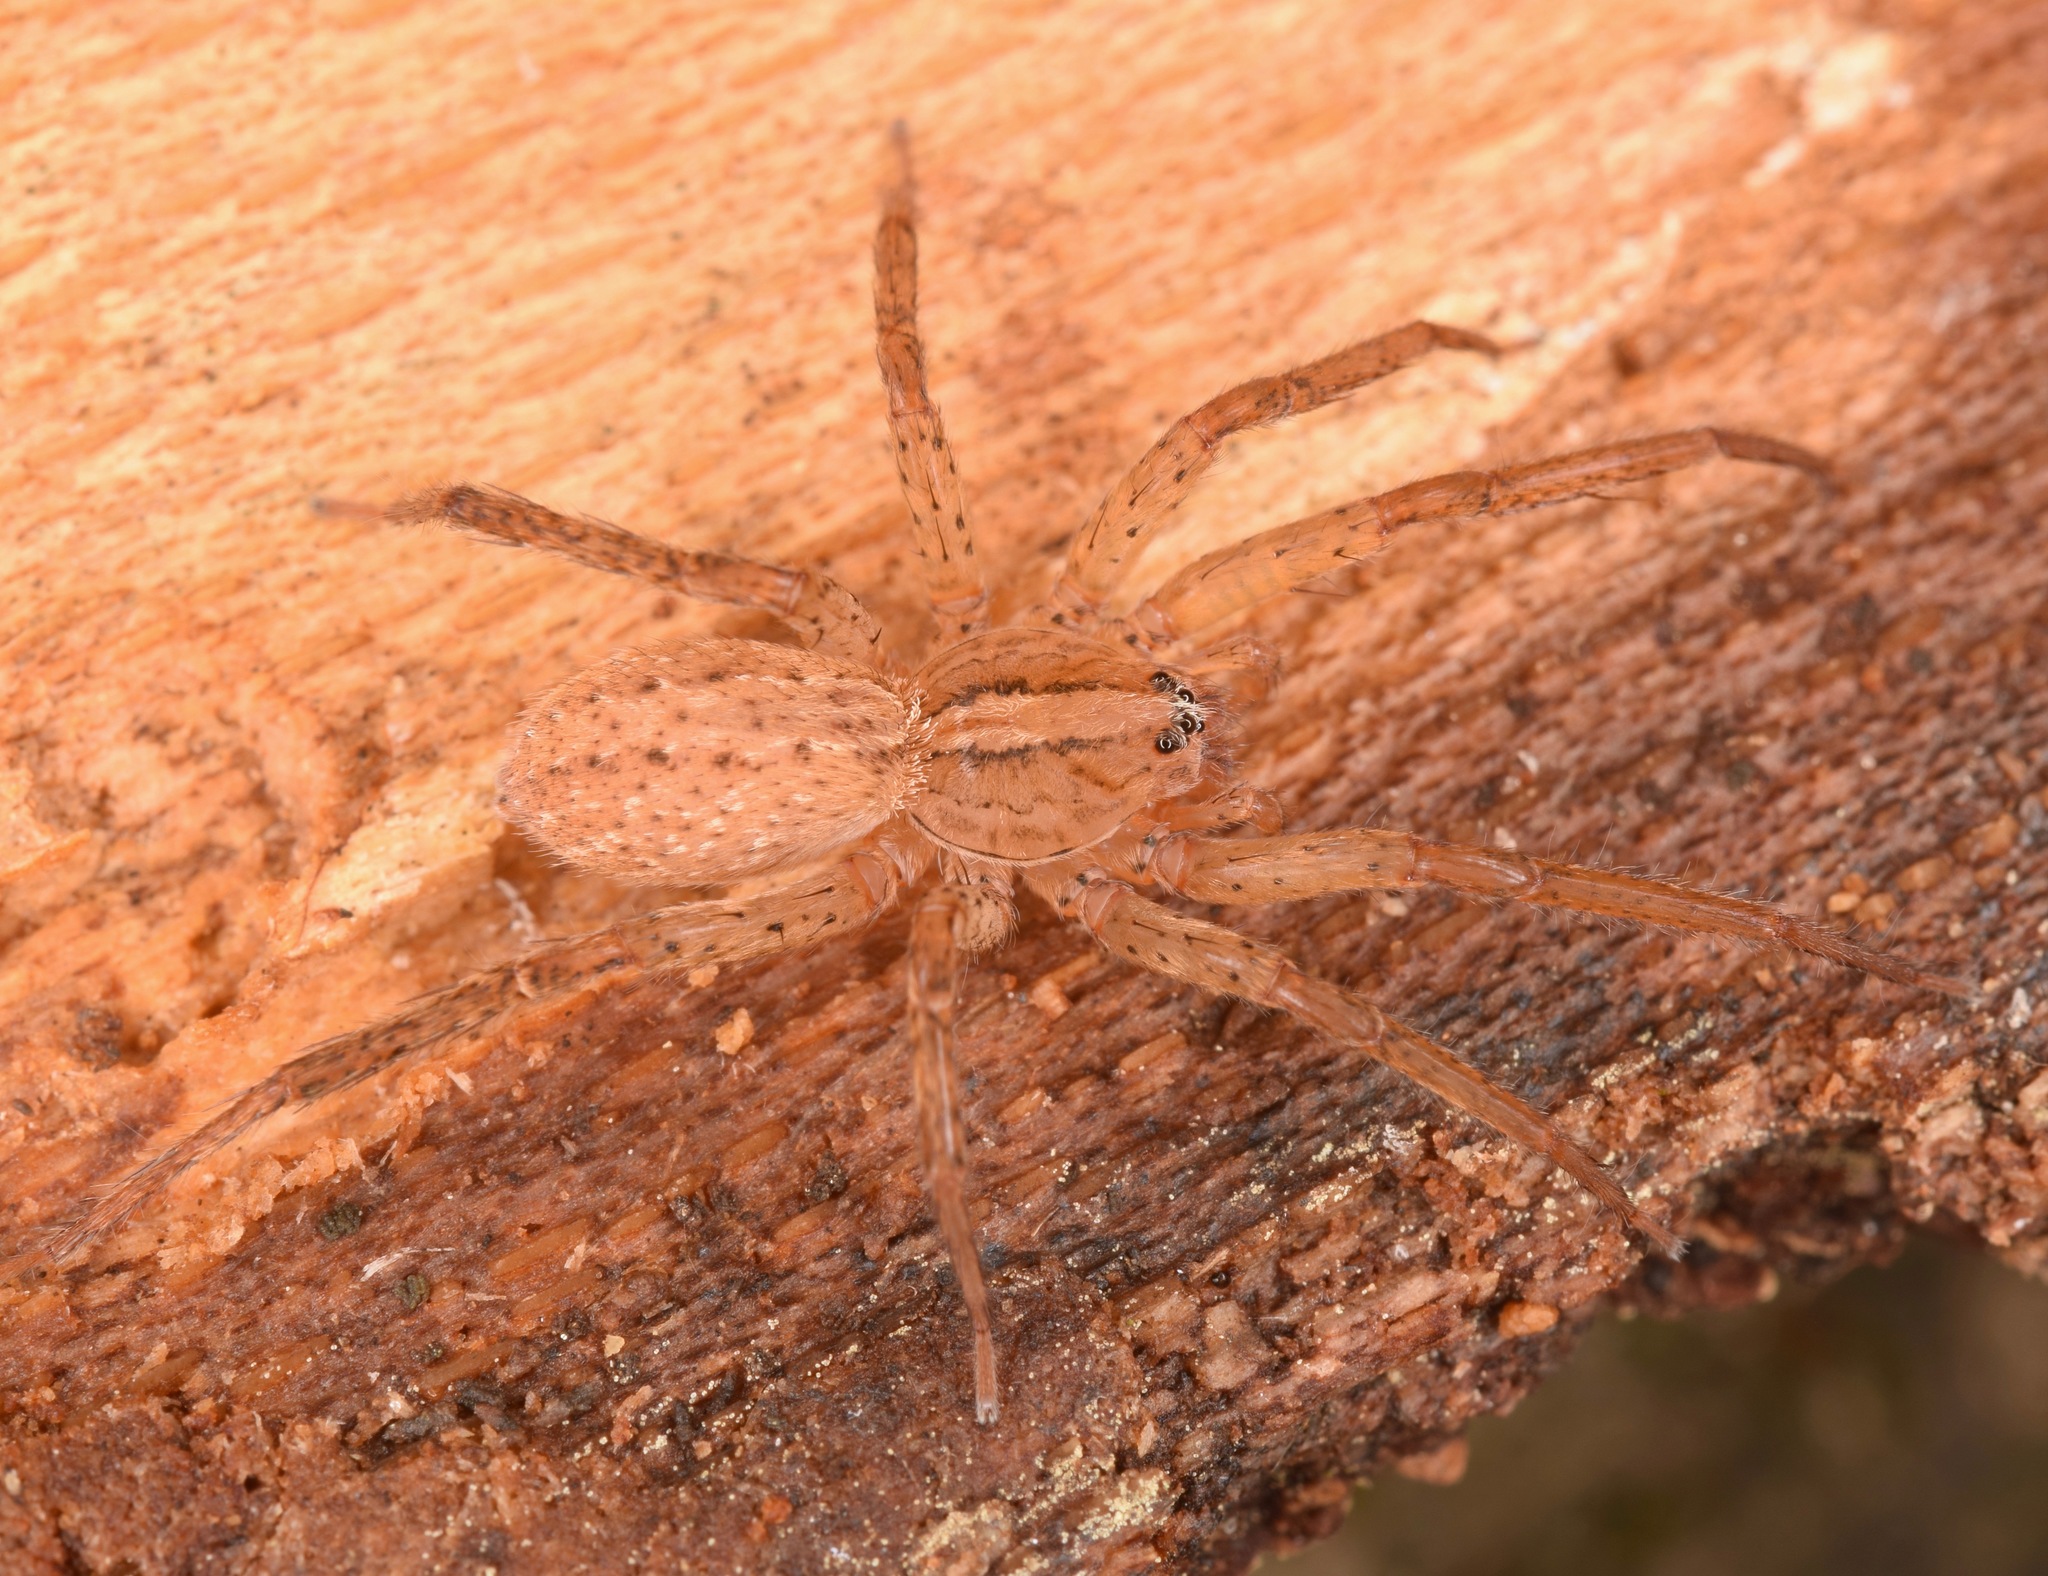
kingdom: Animalia
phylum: Arthropoda
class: Arachnida
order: Araneae
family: Ctenidae
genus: Anahita
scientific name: Anahita punctulata
